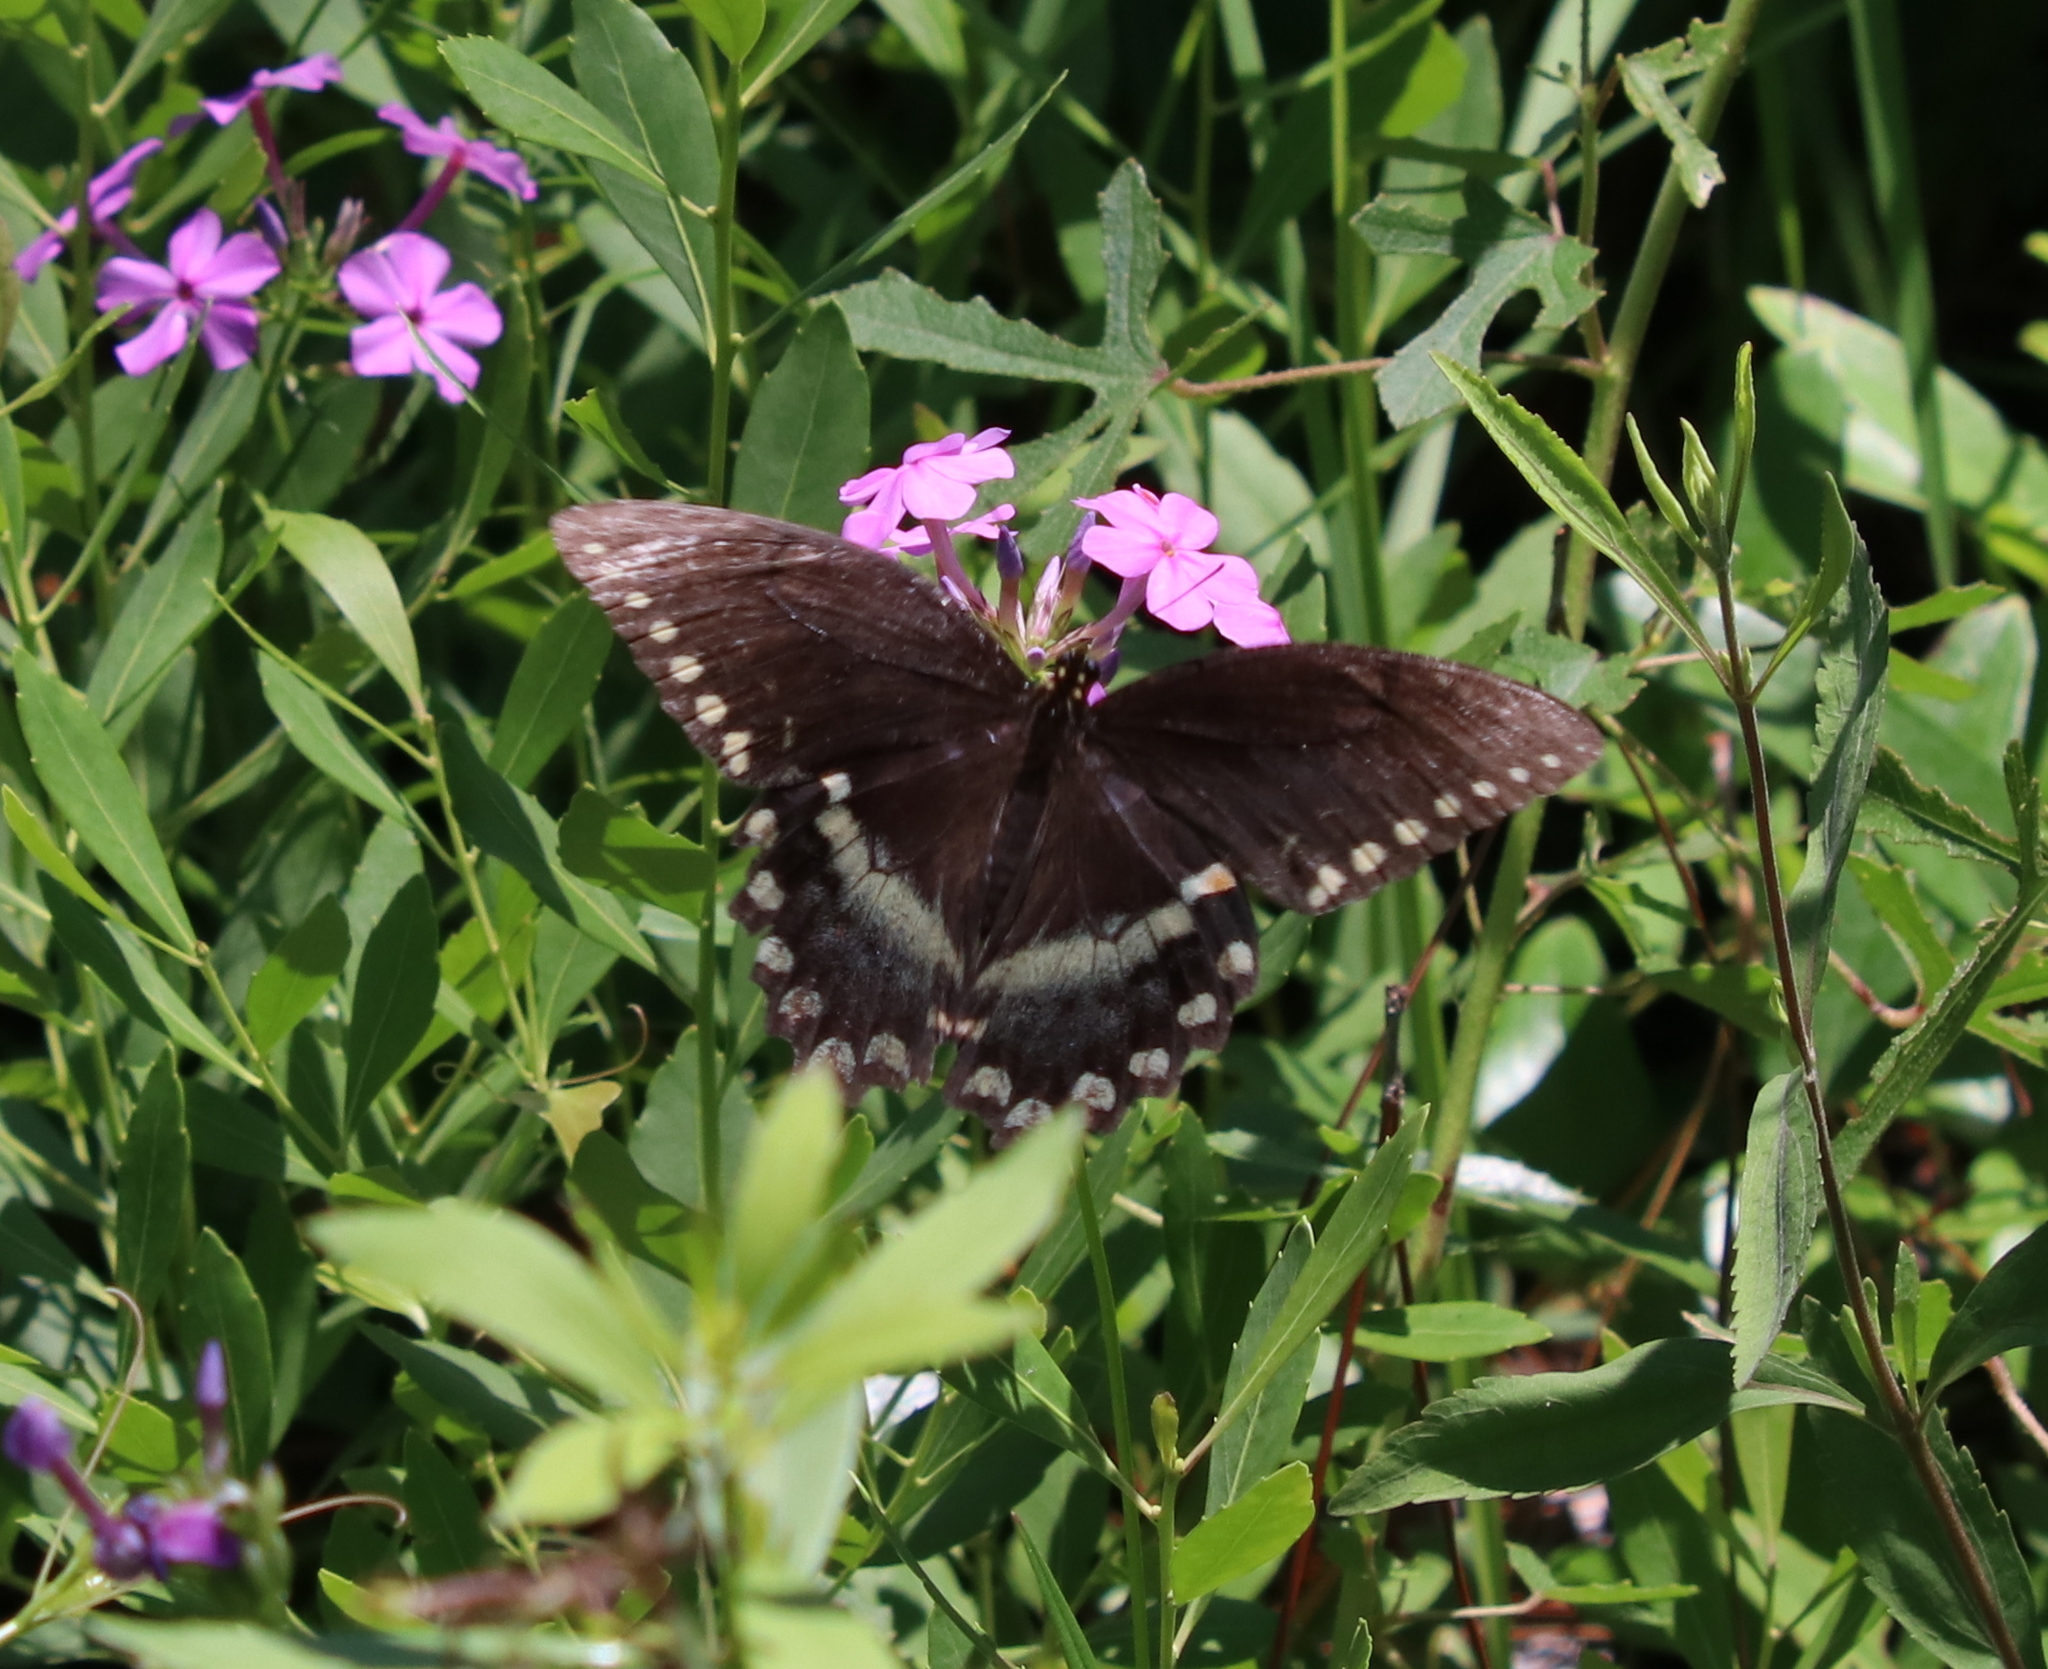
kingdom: Animalia
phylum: Arthropoda
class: Insecta
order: Lepidoptera
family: Papilionidae
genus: Papilio
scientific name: Papilio troilus
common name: Spicebush swallowtail
